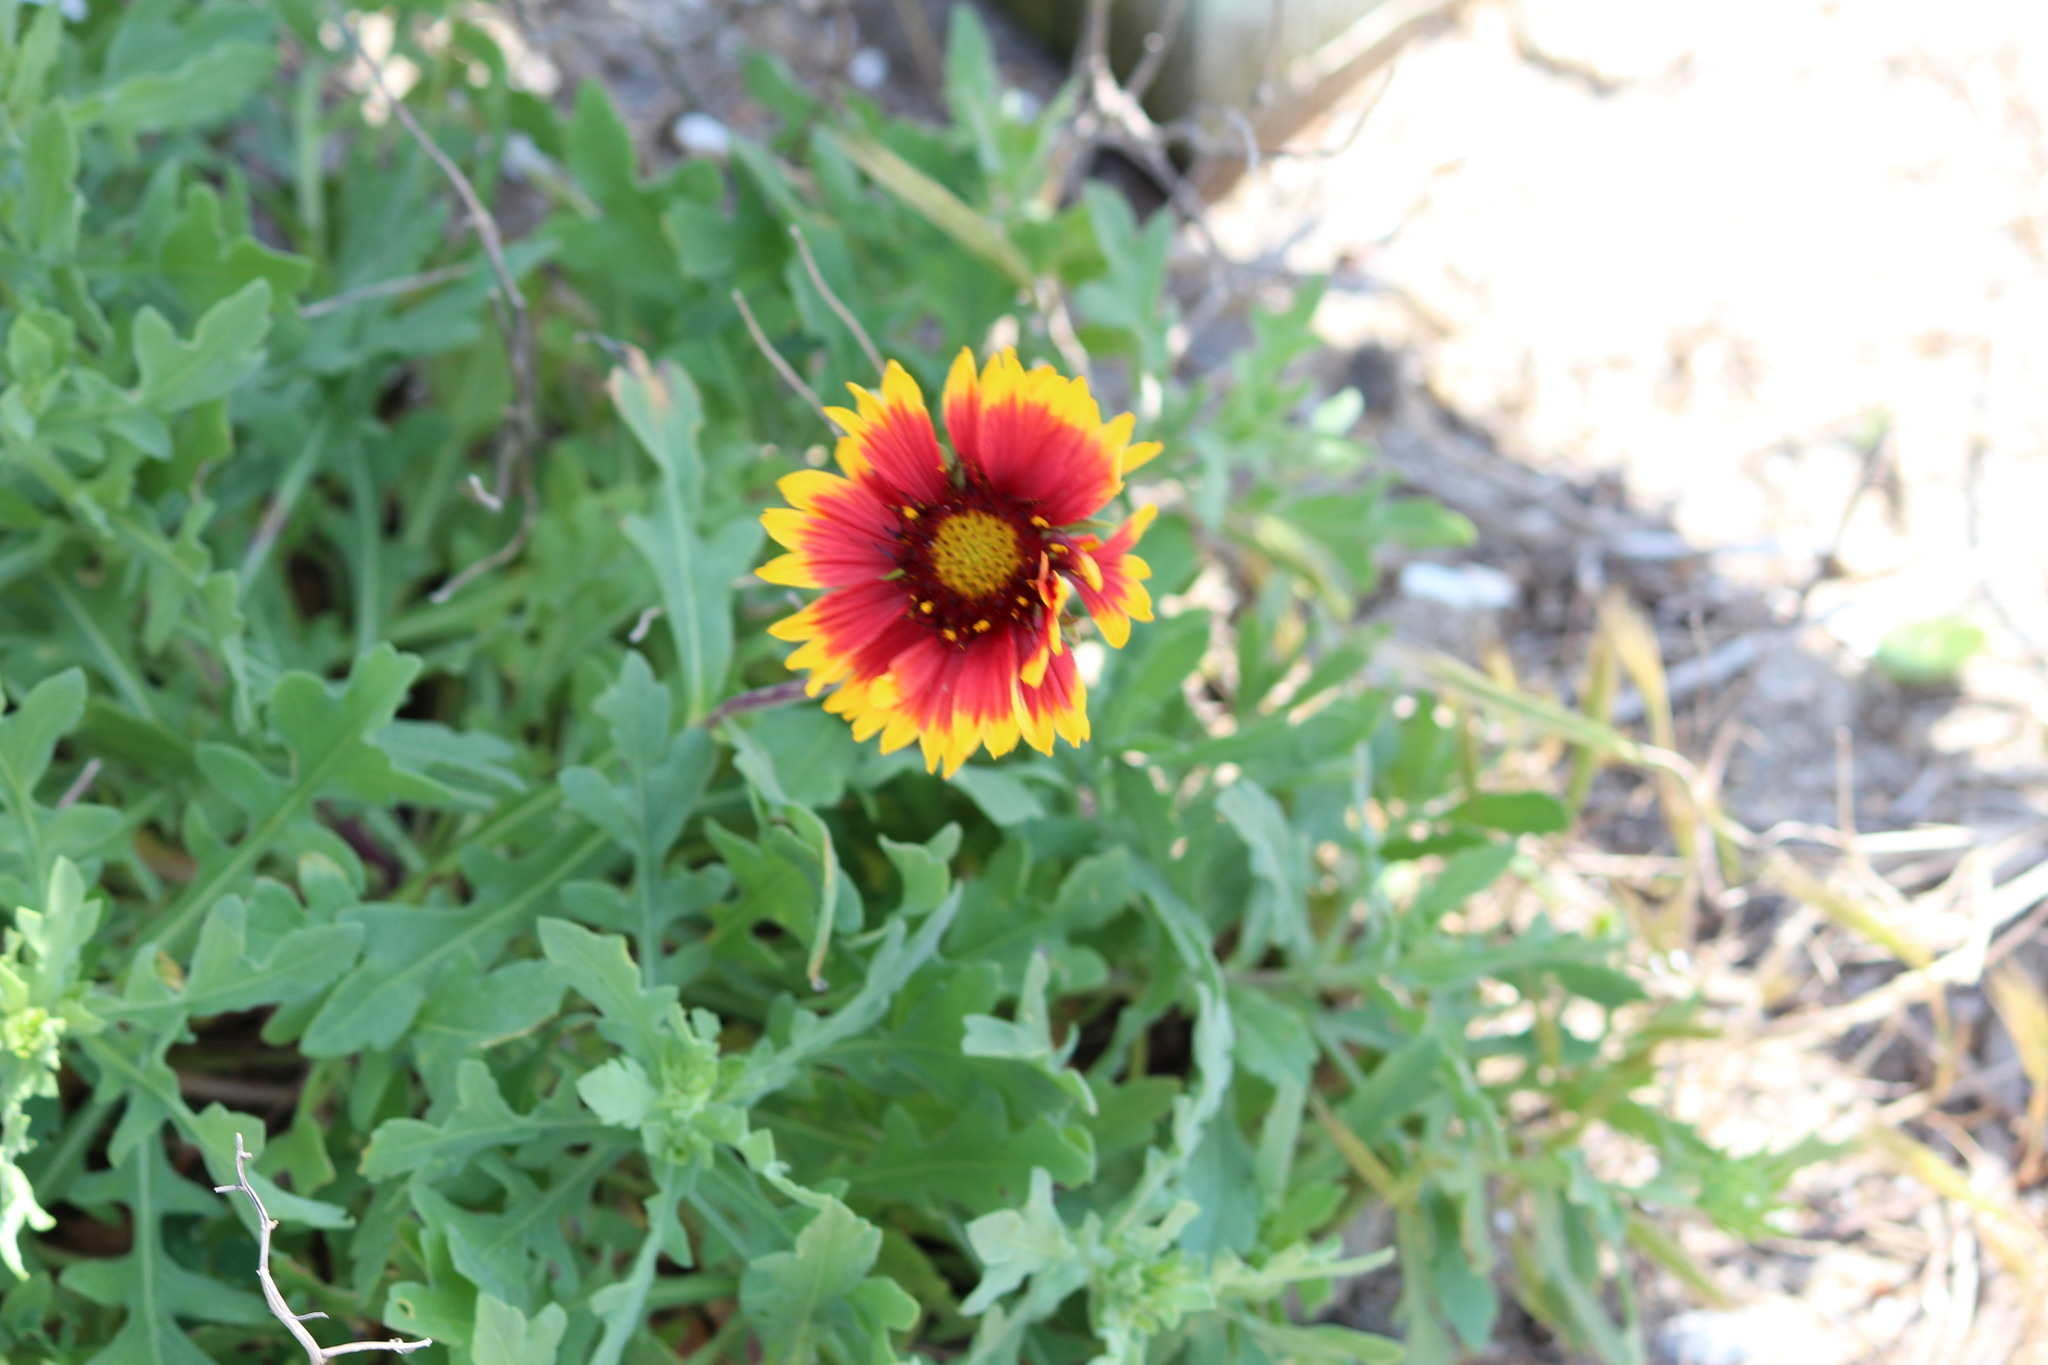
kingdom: Plantae
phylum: Tracheophyta
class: Magnoliopsida
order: Asterales
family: Asteraceae
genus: Gaillardia
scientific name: Gaillardia pulchella
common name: Firewheel
